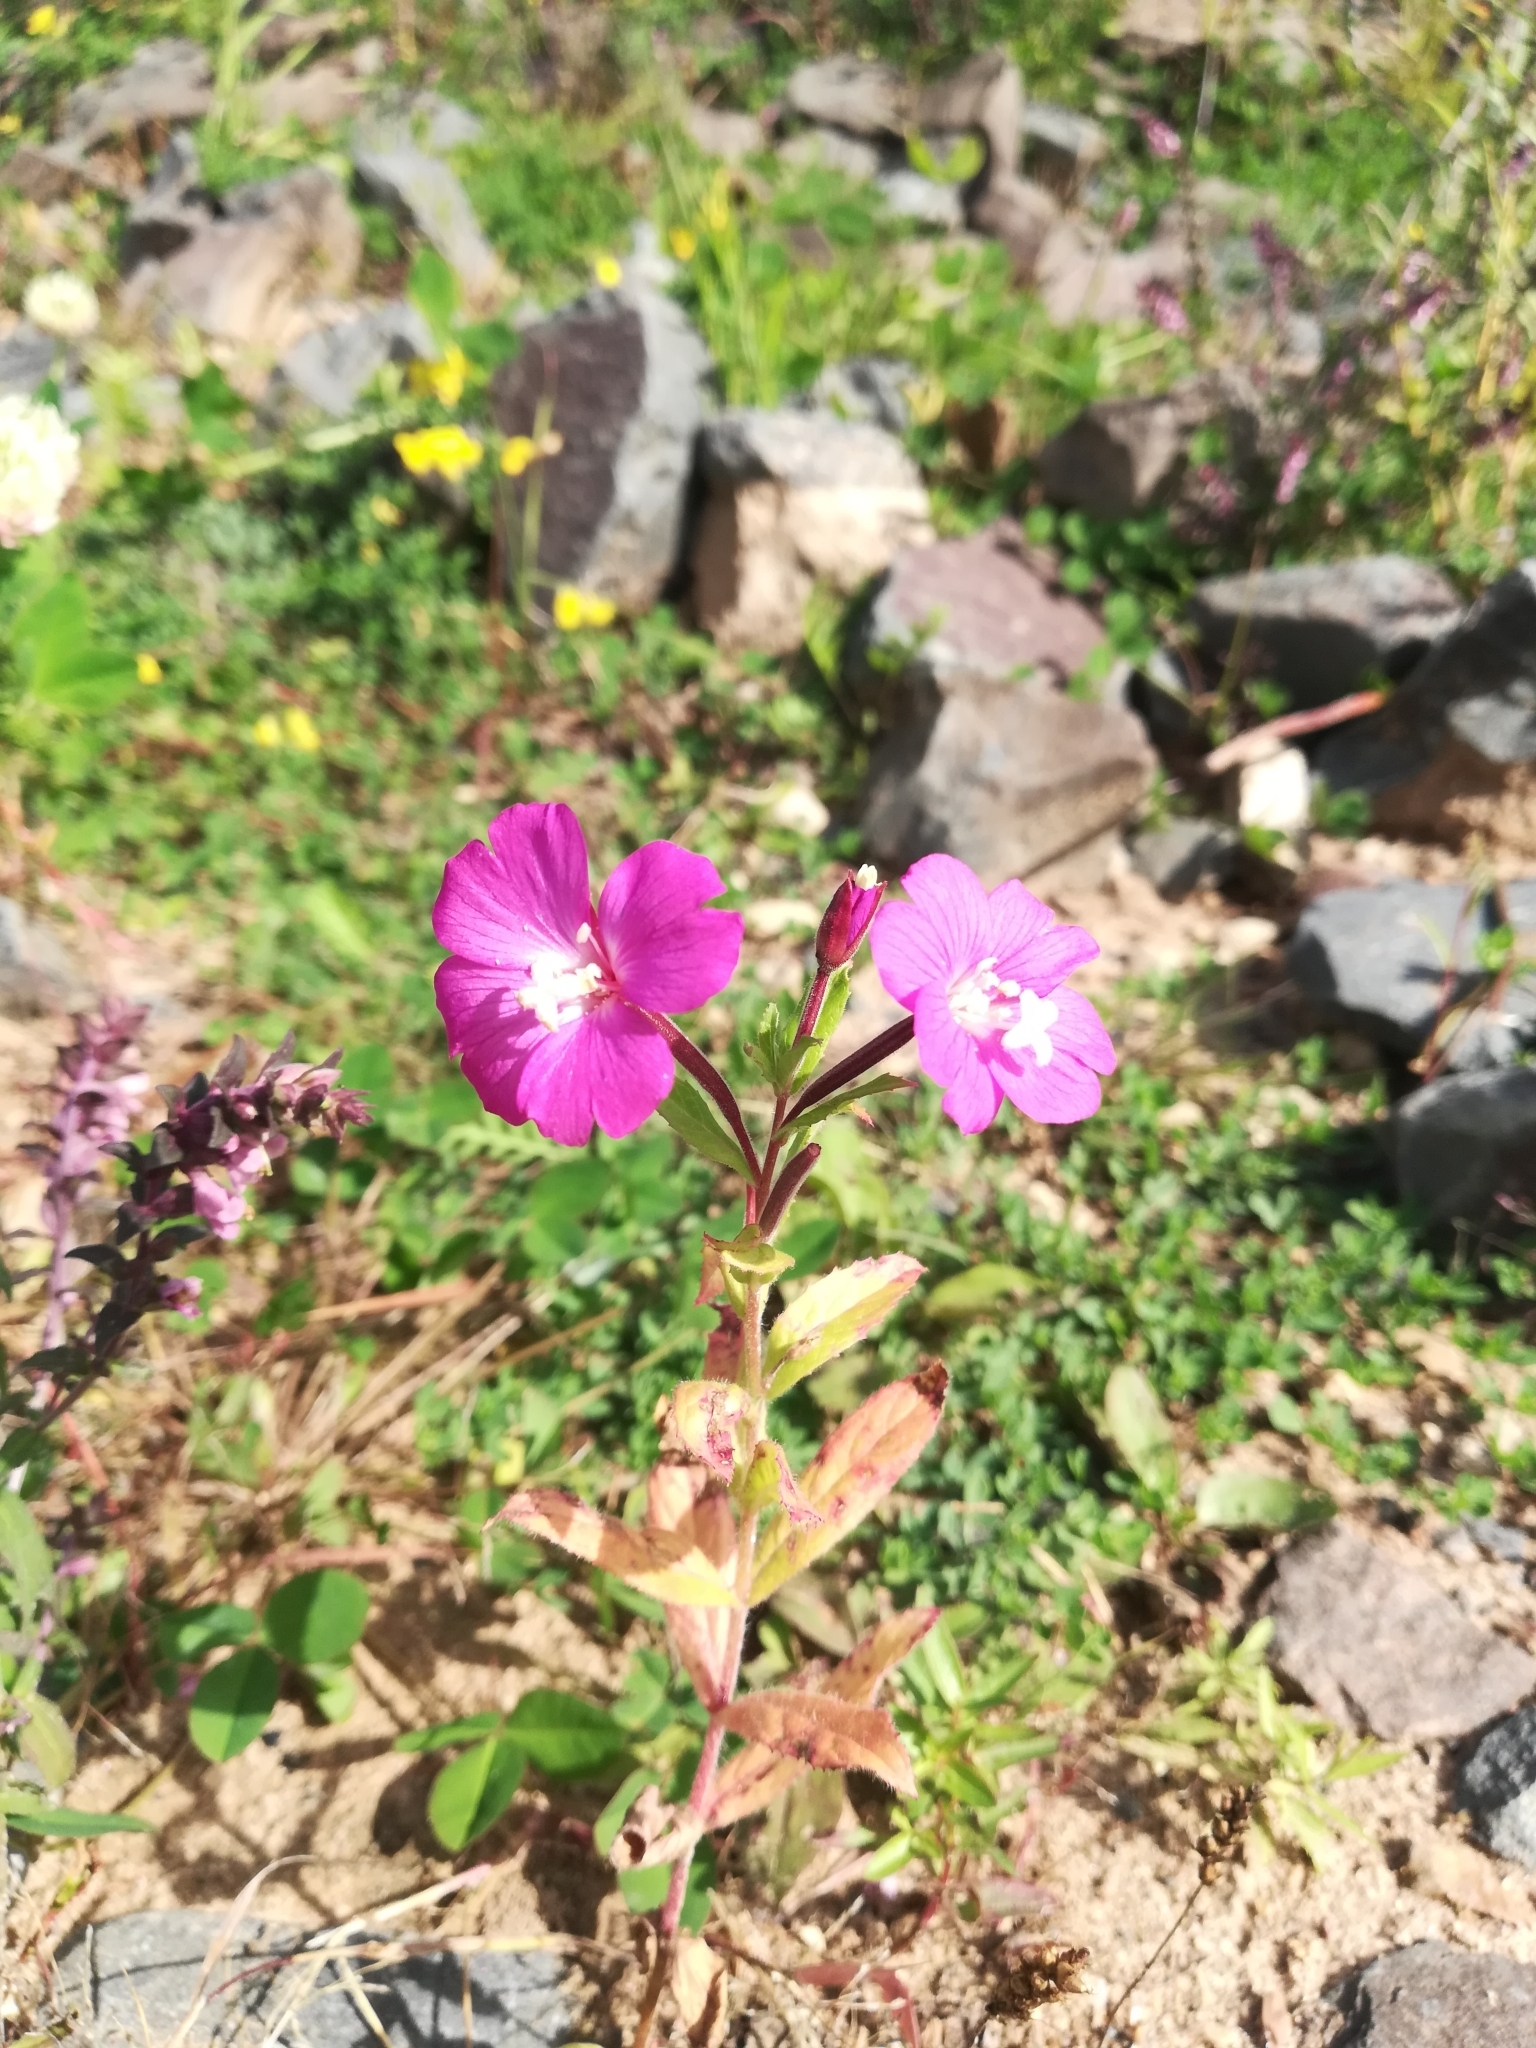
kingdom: Plantae
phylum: Tracheophyta
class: Magnoliopsida
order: Myrtales
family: Onagraceae
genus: Epilobium
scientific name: Epilobium hirsutum
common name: Great willowherb
